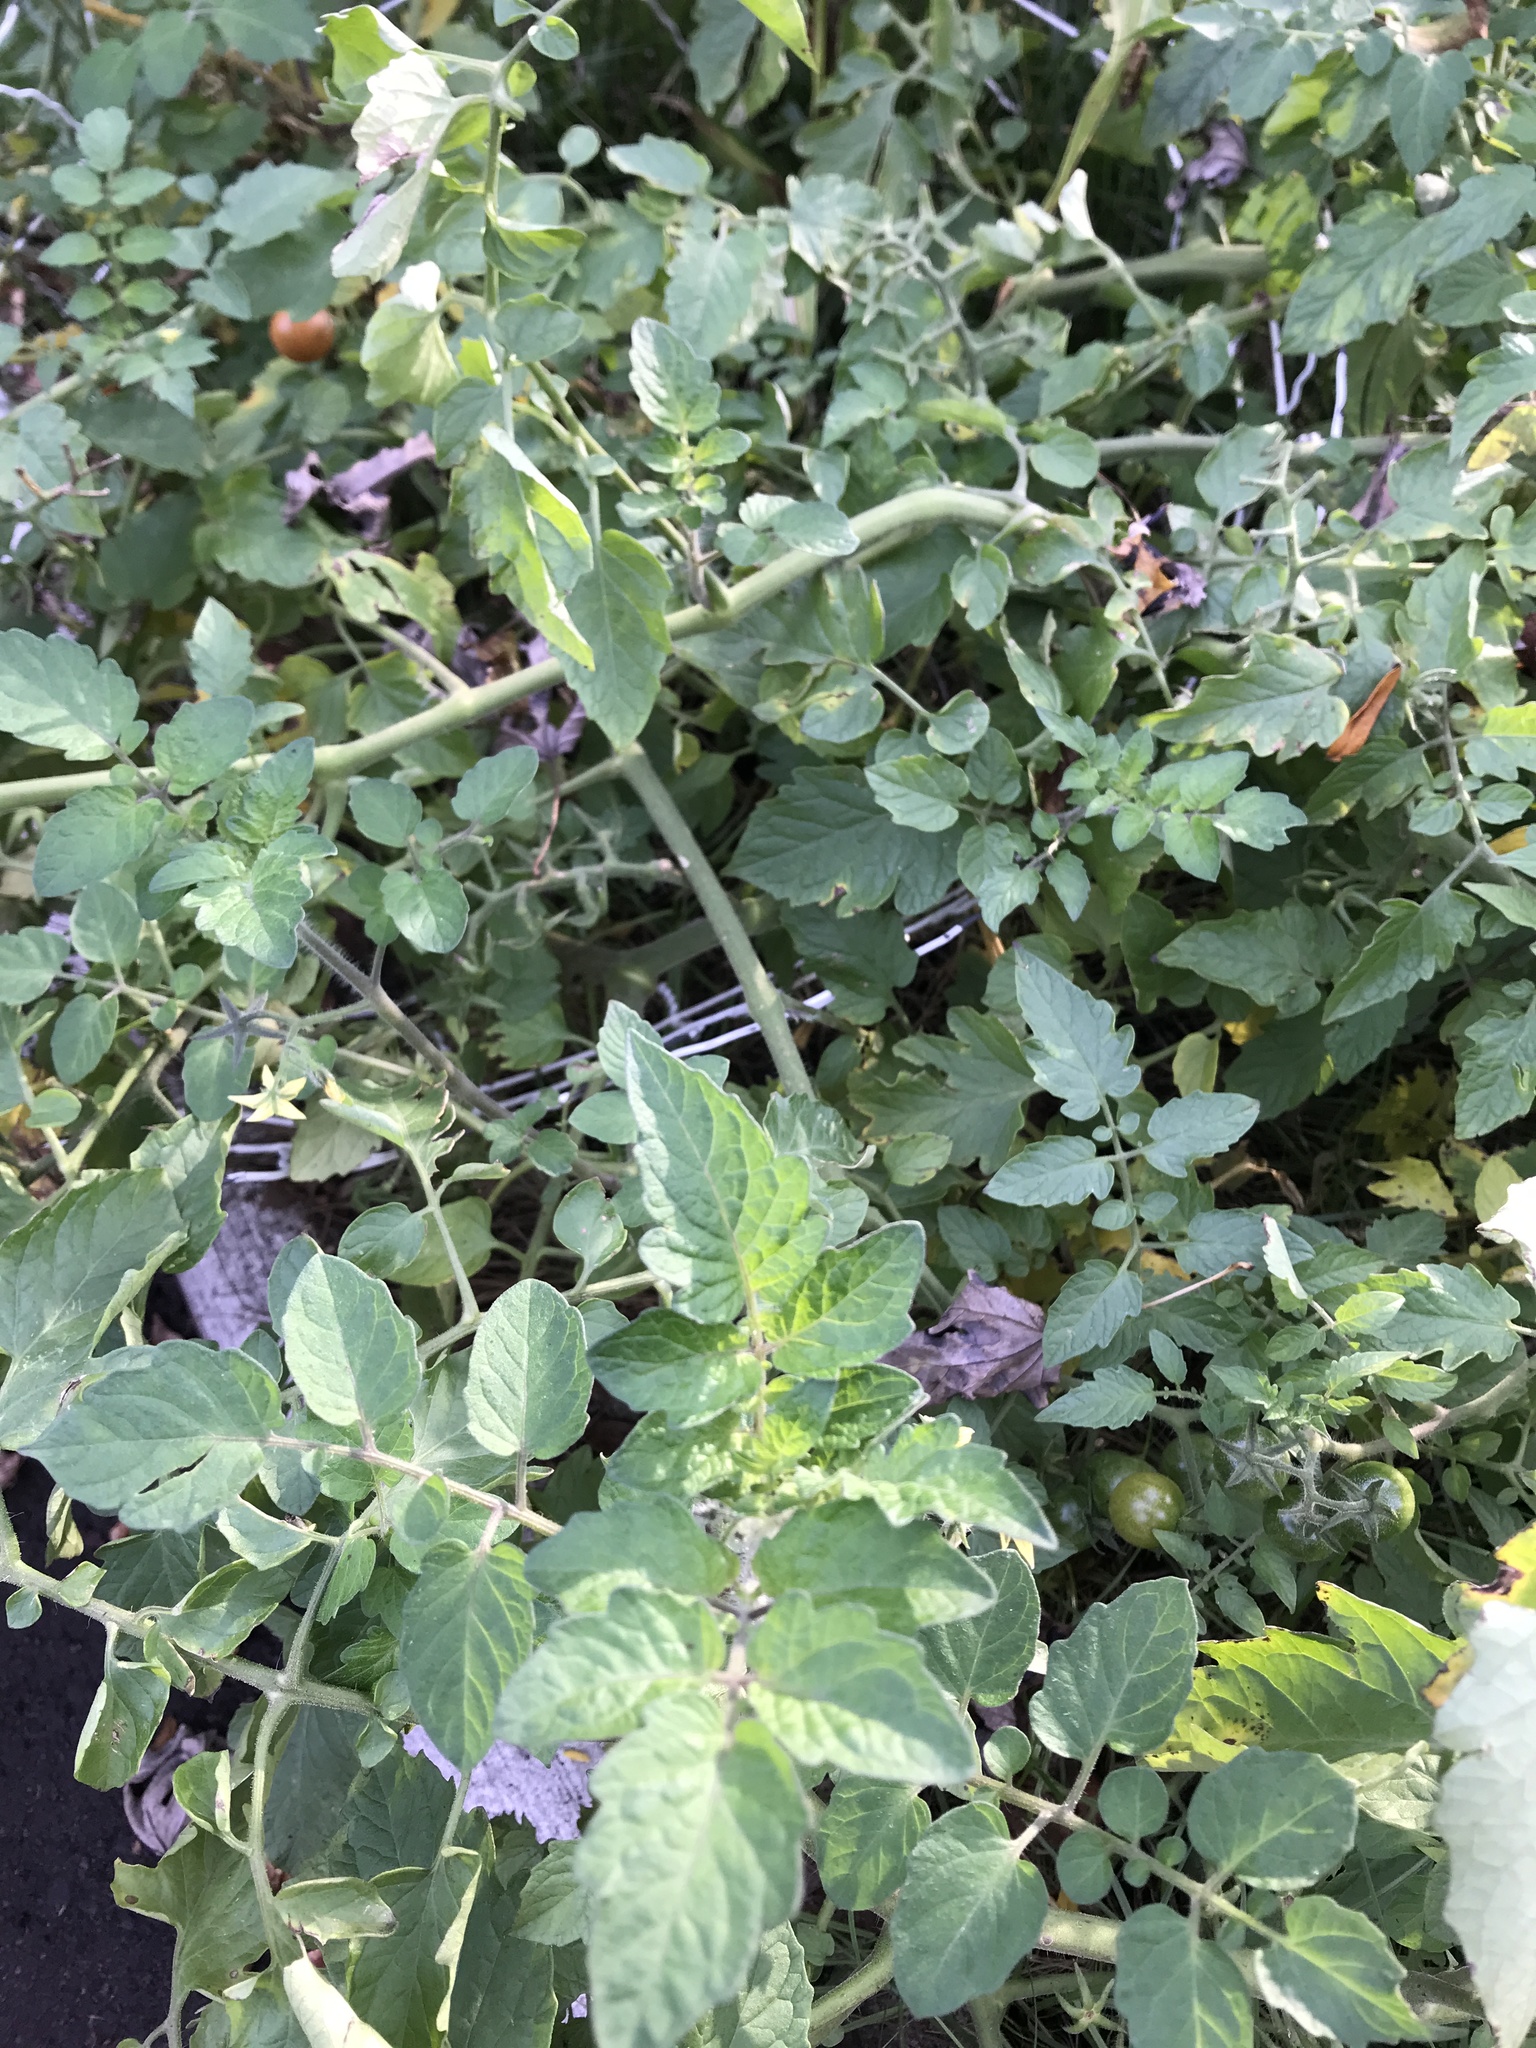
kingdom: Plantae
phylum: Tracheophyta
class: Magnoliopsida
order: Solanales
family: Solanaceae
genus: Solanum
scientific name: Solanum lycopersicum
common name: Garden tomato
